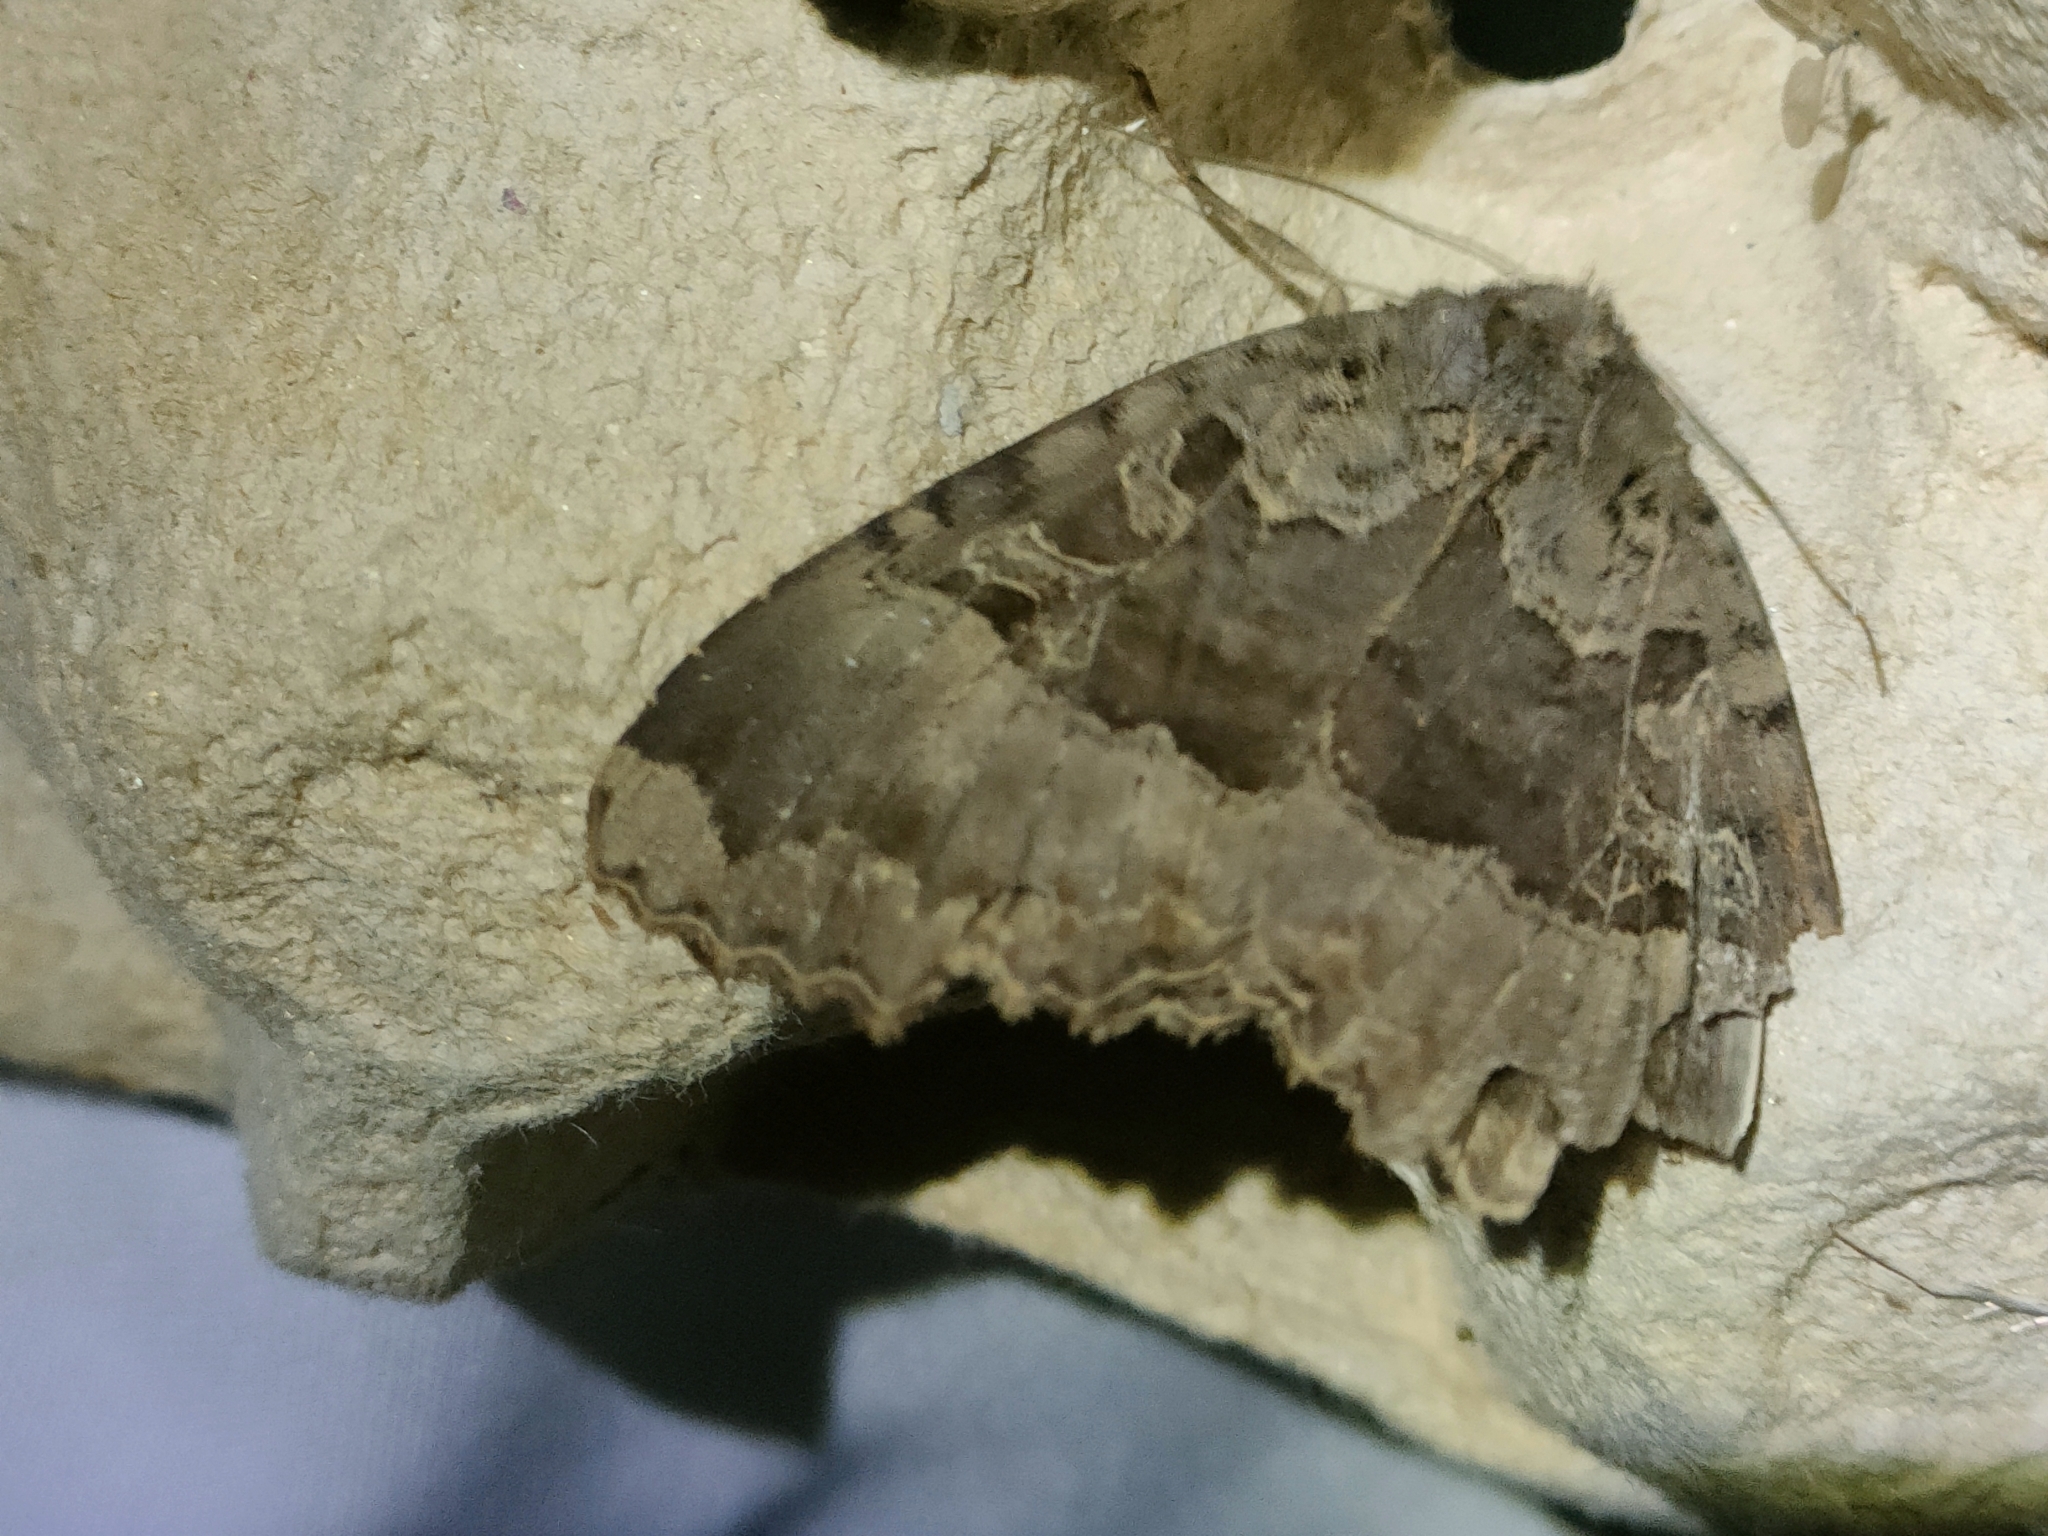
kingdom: Animalia
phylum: Arthropoda
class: Insecta
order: Lepidoptera
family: Noctuidae
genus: Mormo
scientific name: Mormo maura
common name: Old lady
